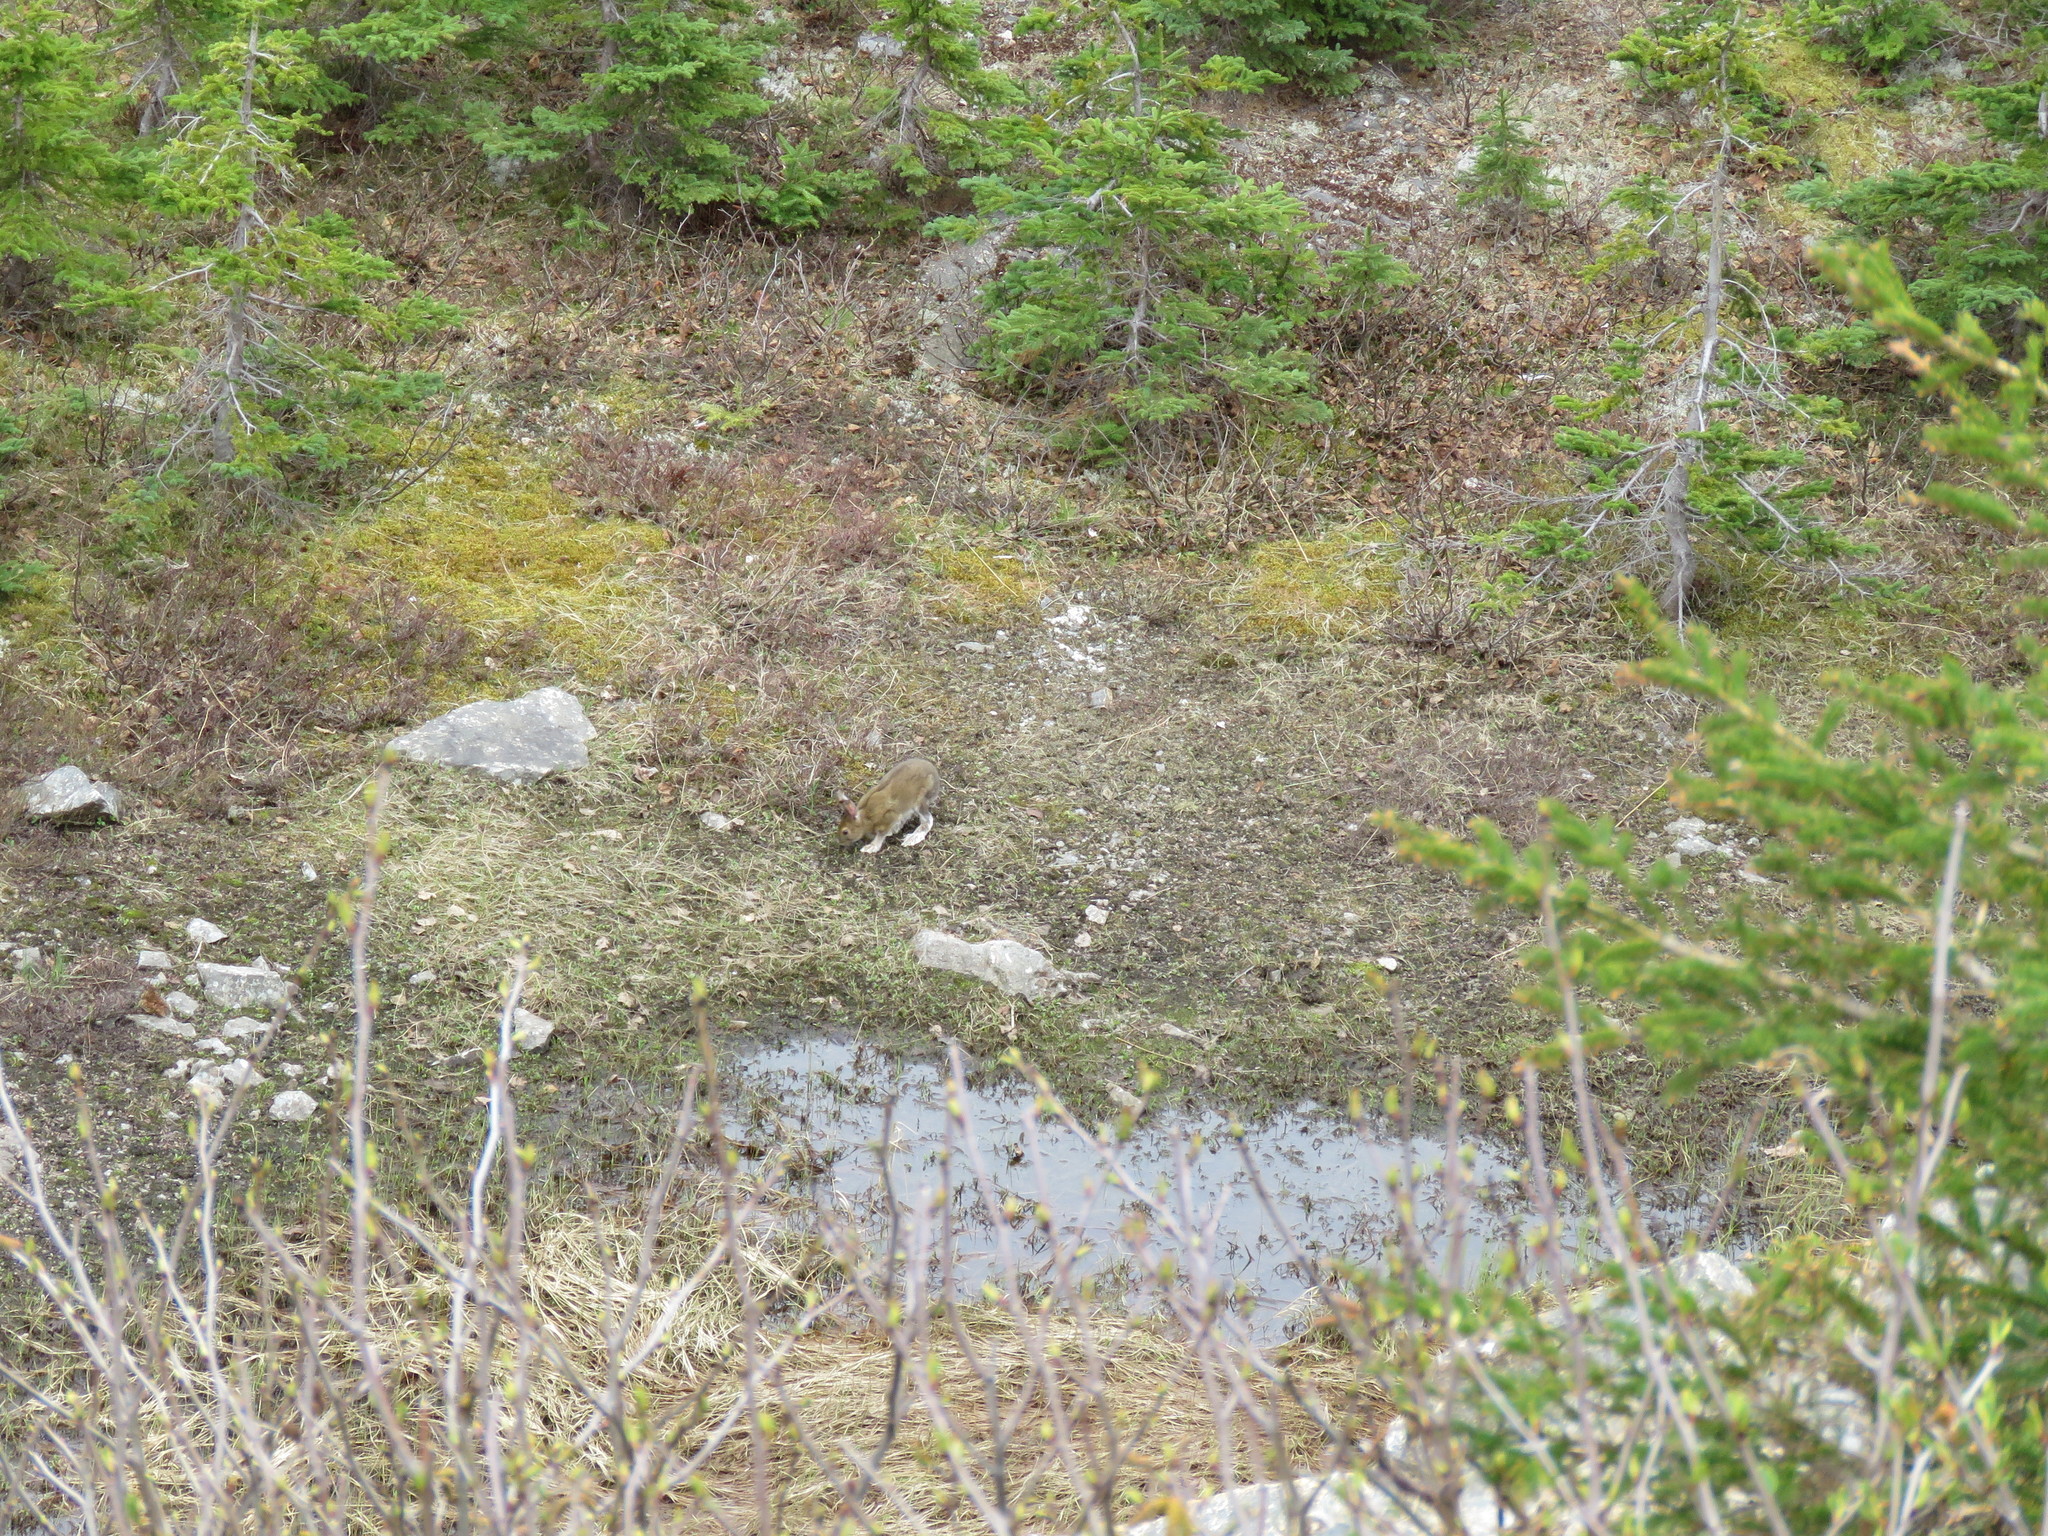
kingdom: Animalia
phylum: Chordata
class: Mammalia
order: Lagomorpha
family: Leporidae
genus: Lepus
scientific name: Lepus americanus
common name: Snowshoe hare
